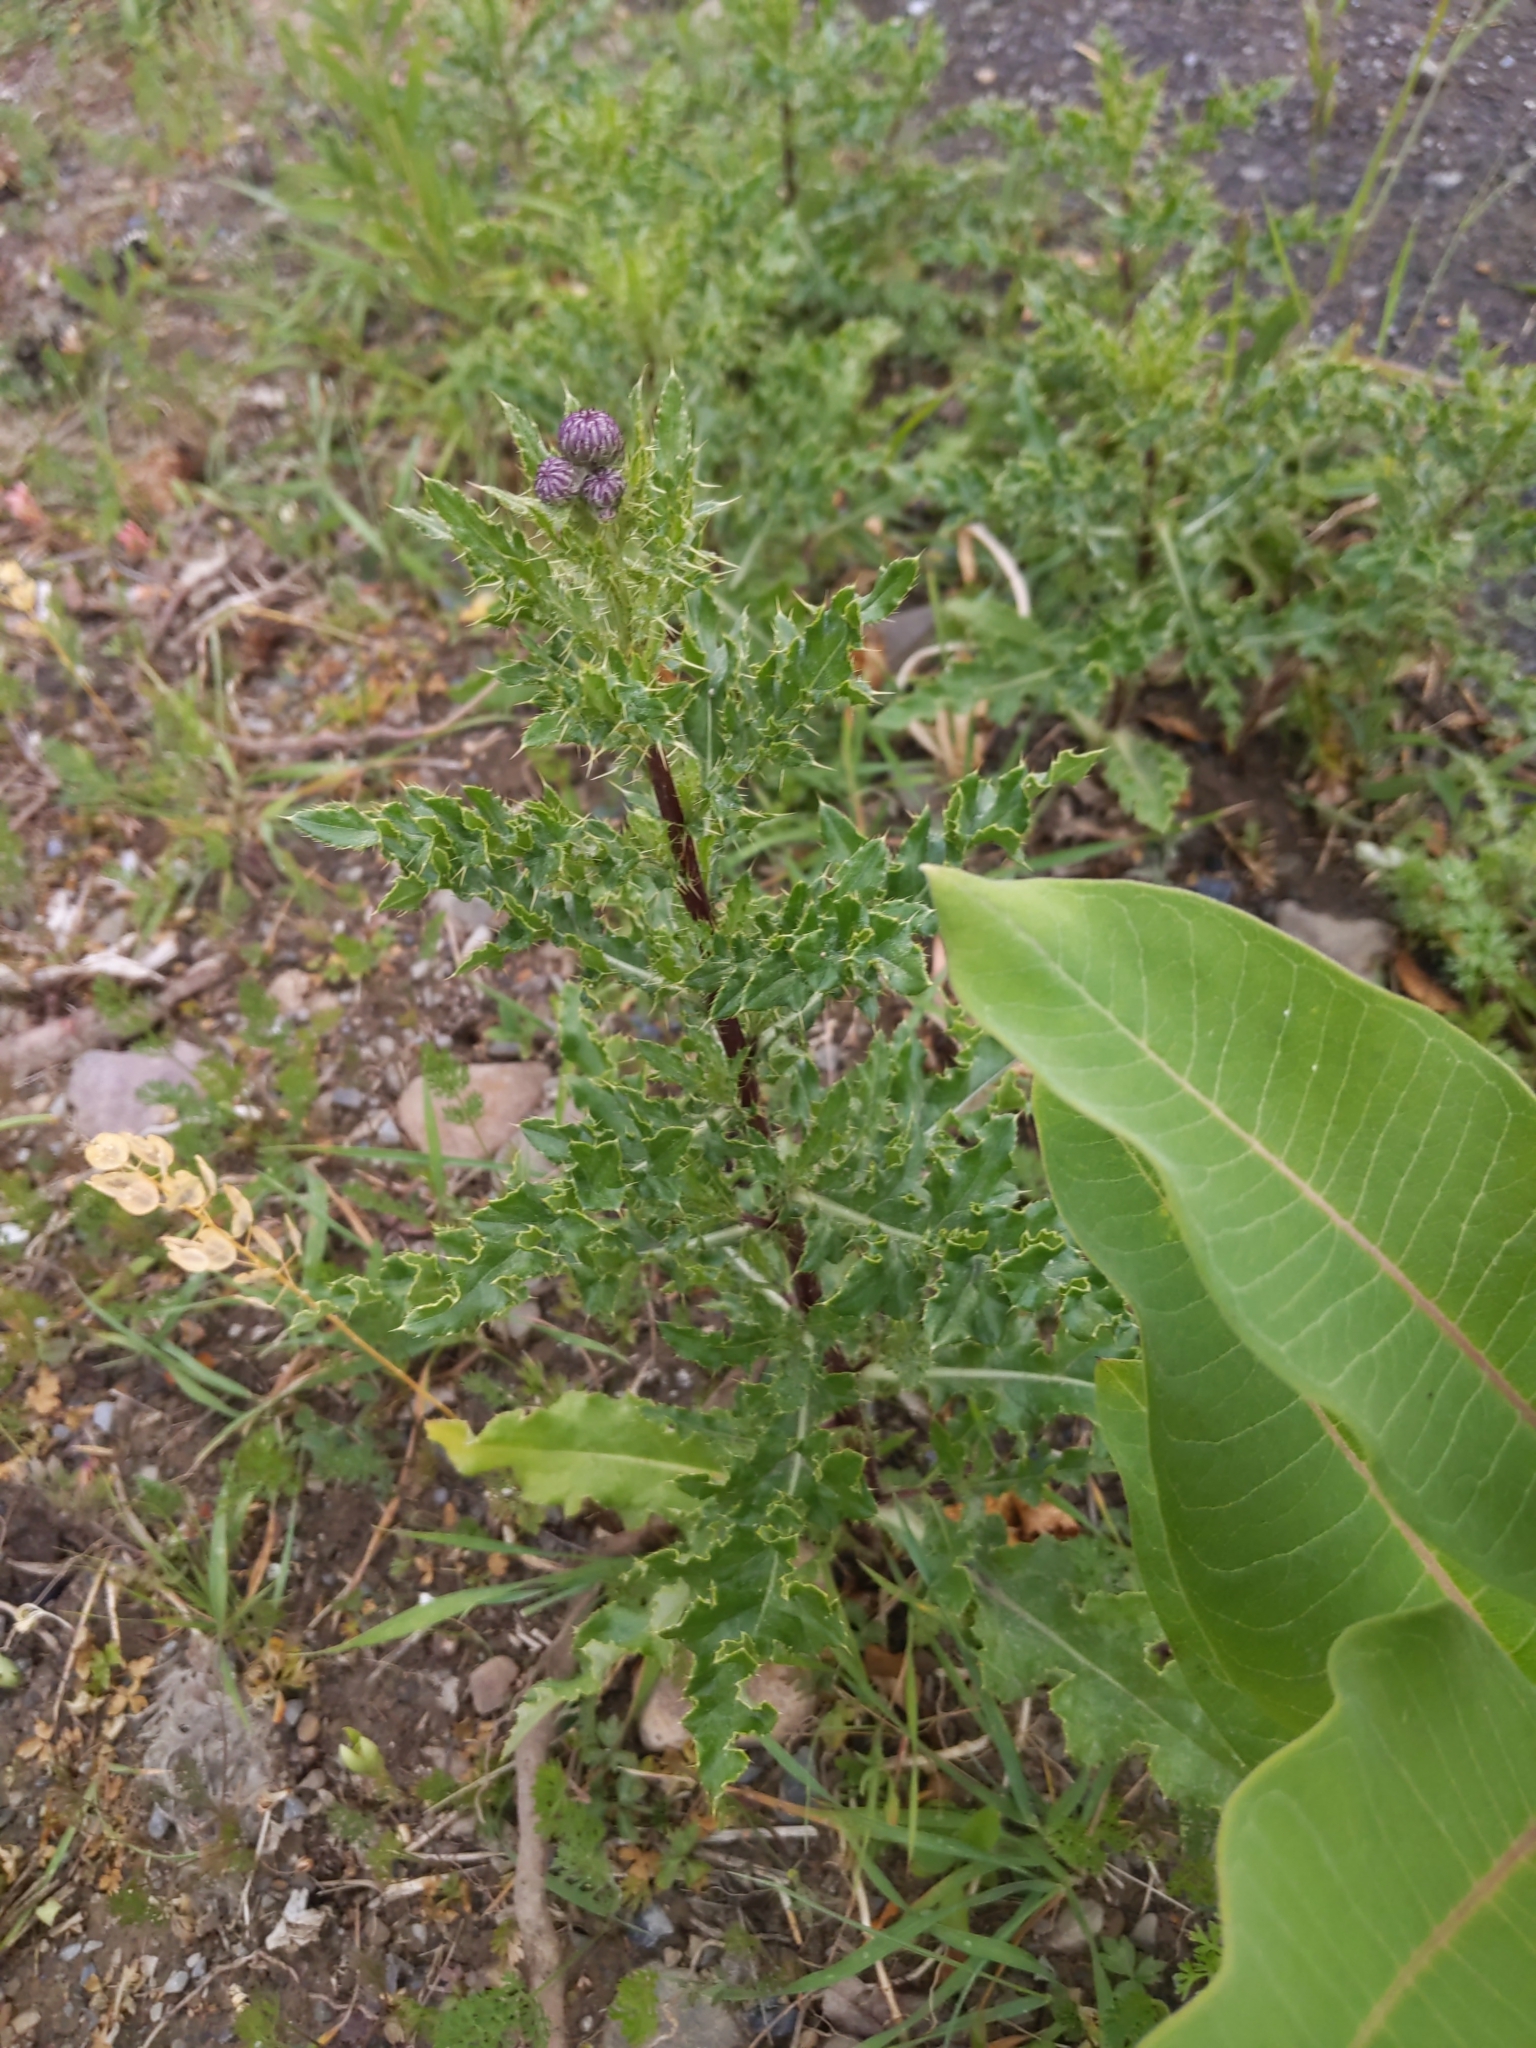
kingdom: Plantae
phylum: Tracheophyta
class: Magnoliopsida
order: Asterales
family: Asteraceae
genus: Cirsium
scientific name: Cirsium arvense
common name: Creeping thistle
